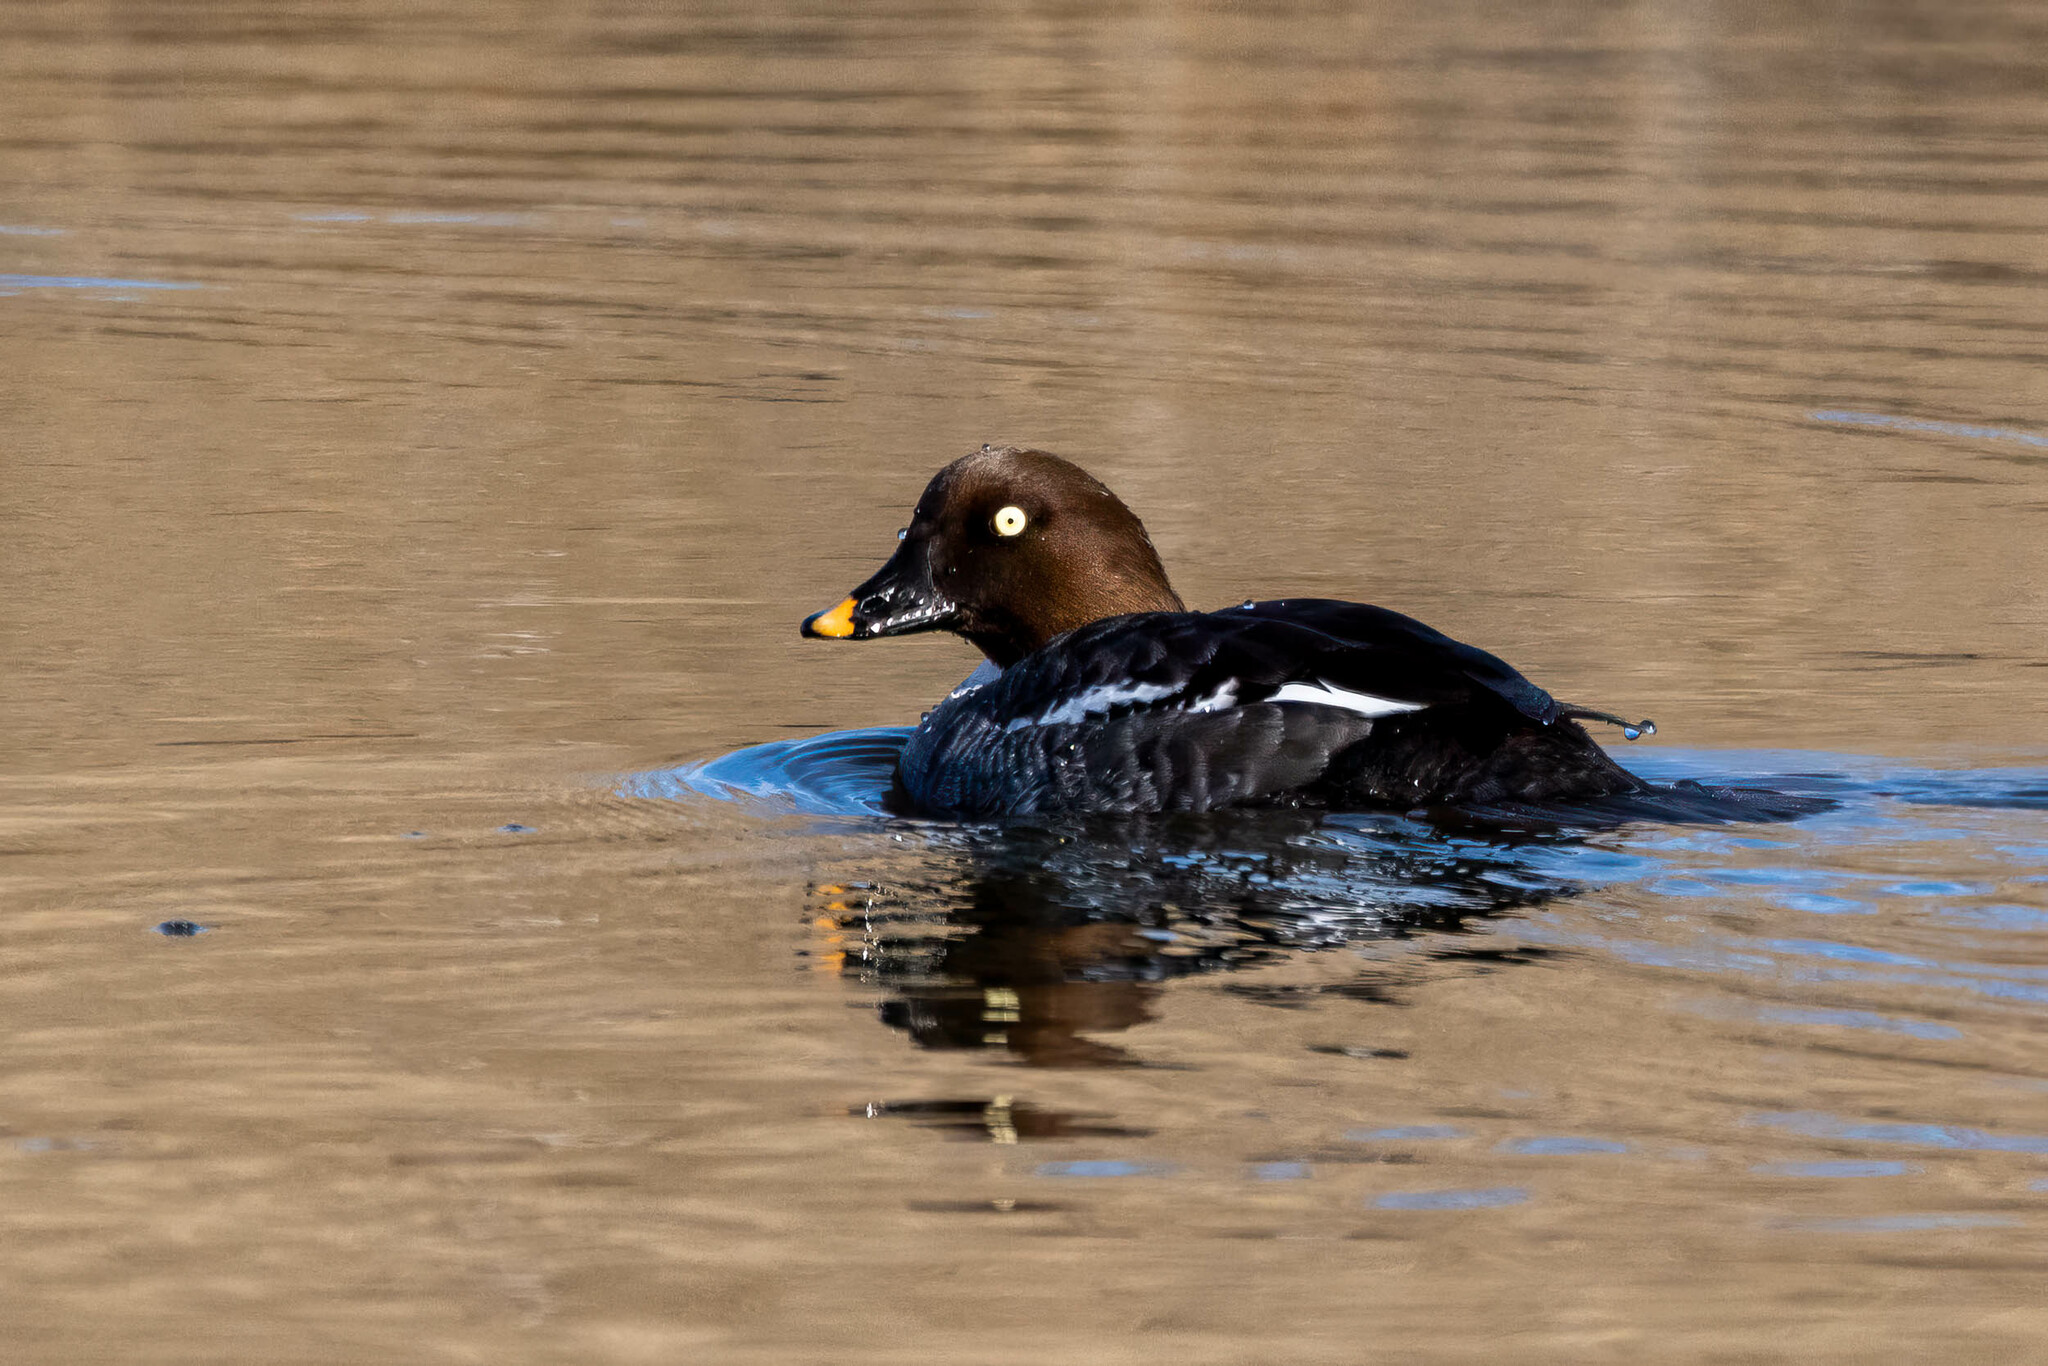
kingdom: Animalia
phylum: Chordata
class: Aves
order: Anseriformes
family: Anatidae
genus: Bucephala
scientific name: Bucephala clangula
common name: Common goldeneye
